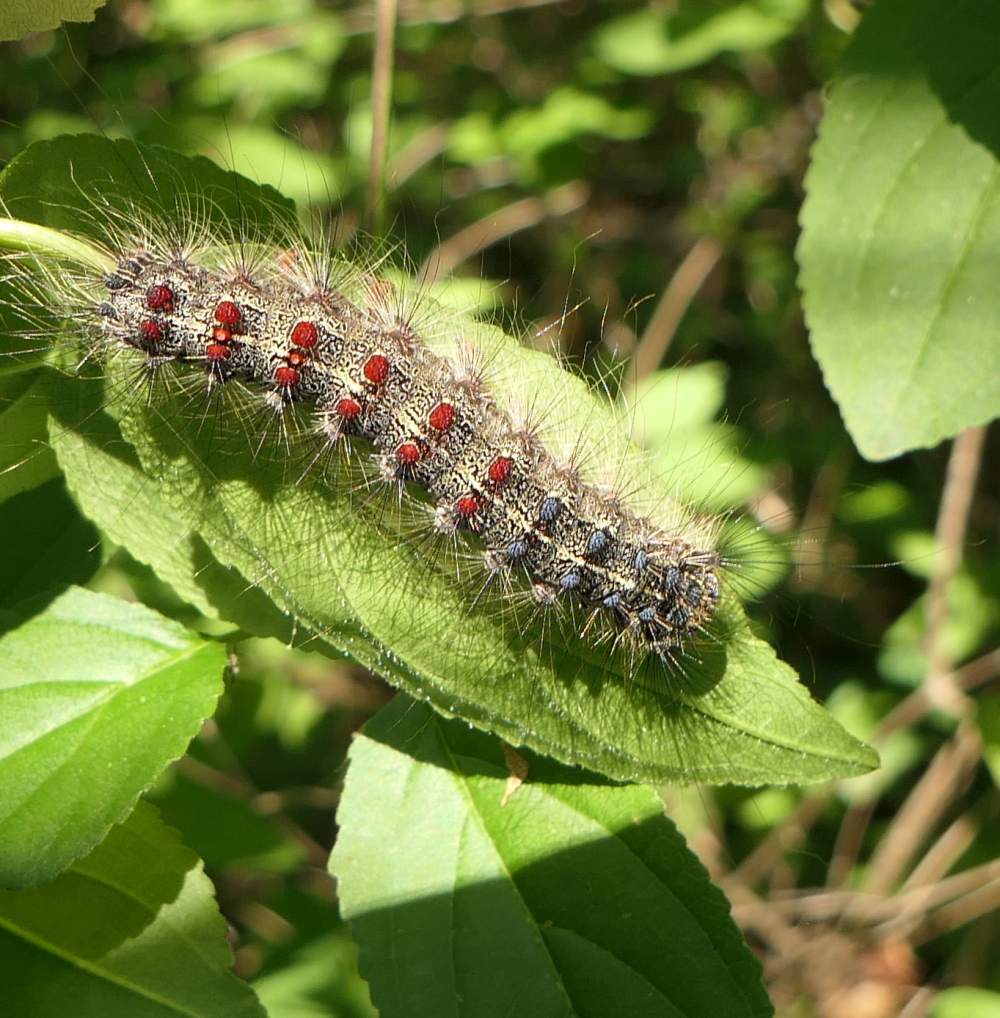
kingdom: Animalia
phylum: Arthropoda
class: Insecta
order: Lepidoptera
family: Erebidae
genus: Lymantria
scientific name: Lymantria dispar
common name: Gypsy moth
